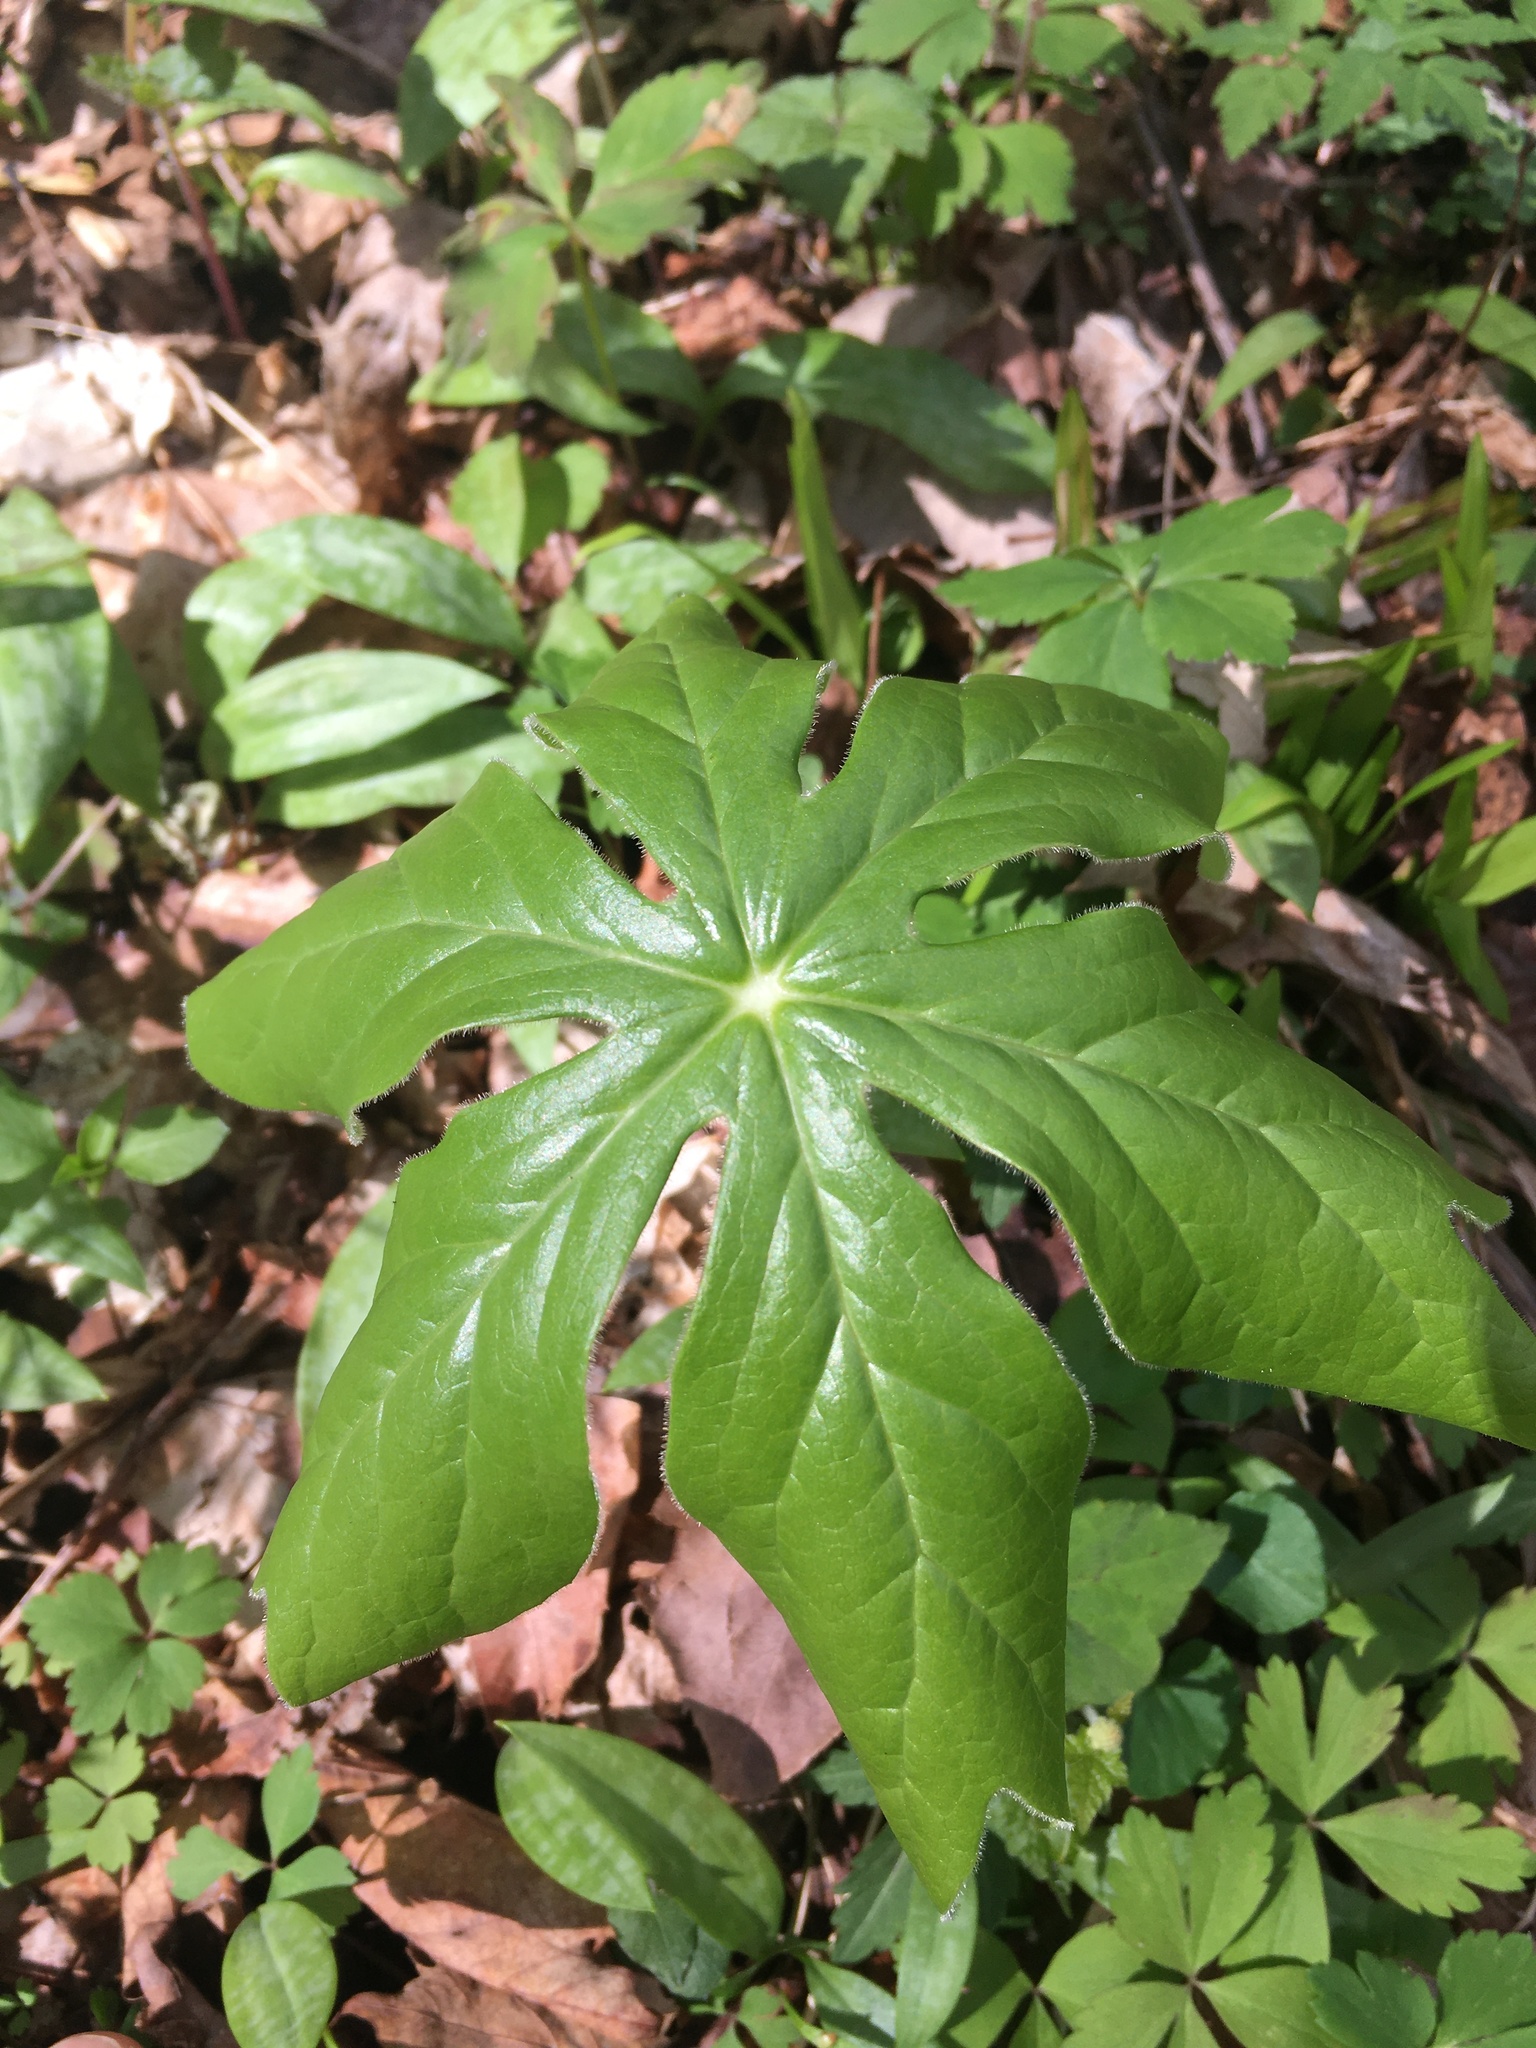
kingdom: Plantae
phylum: Tracheophyta
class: Magnoliopsida
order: Ranunculales
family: Berberidaceae
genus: Podophyllum
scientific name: Podophyllum peltatum
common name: Wild mandrake
